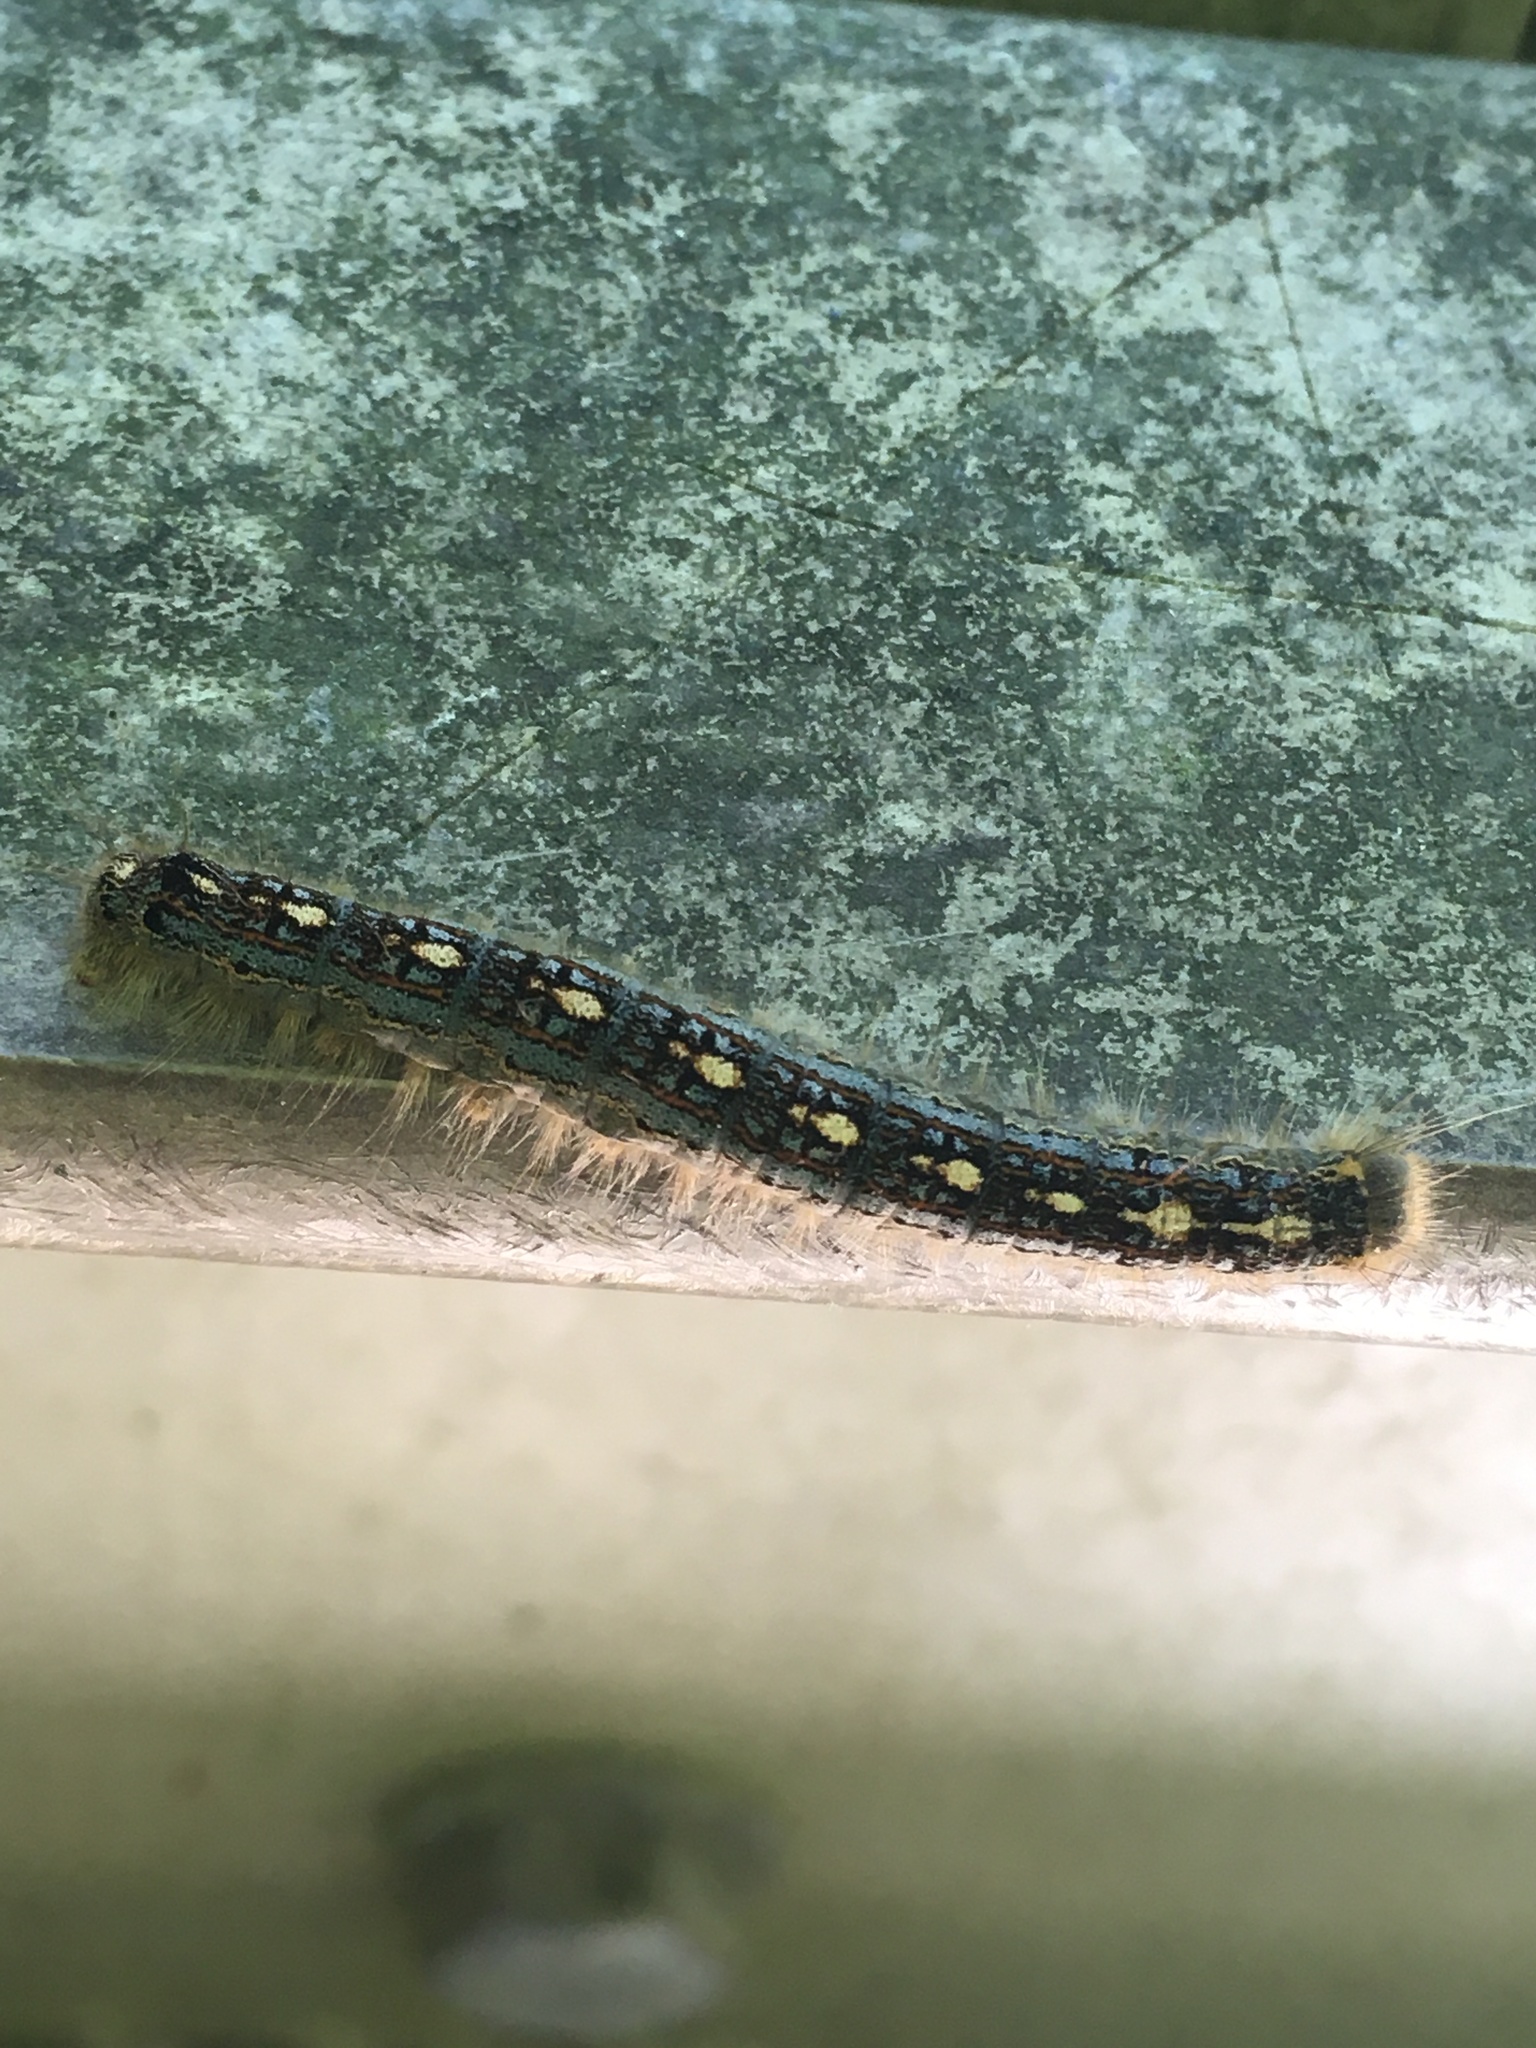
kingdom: Animalia
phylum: Arthropoda
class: Insecta
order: Lepidoptera
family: Lasiocampidae
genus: Malacosoma
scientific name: Malacosoma disstria
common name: Forest tent caterpillar
